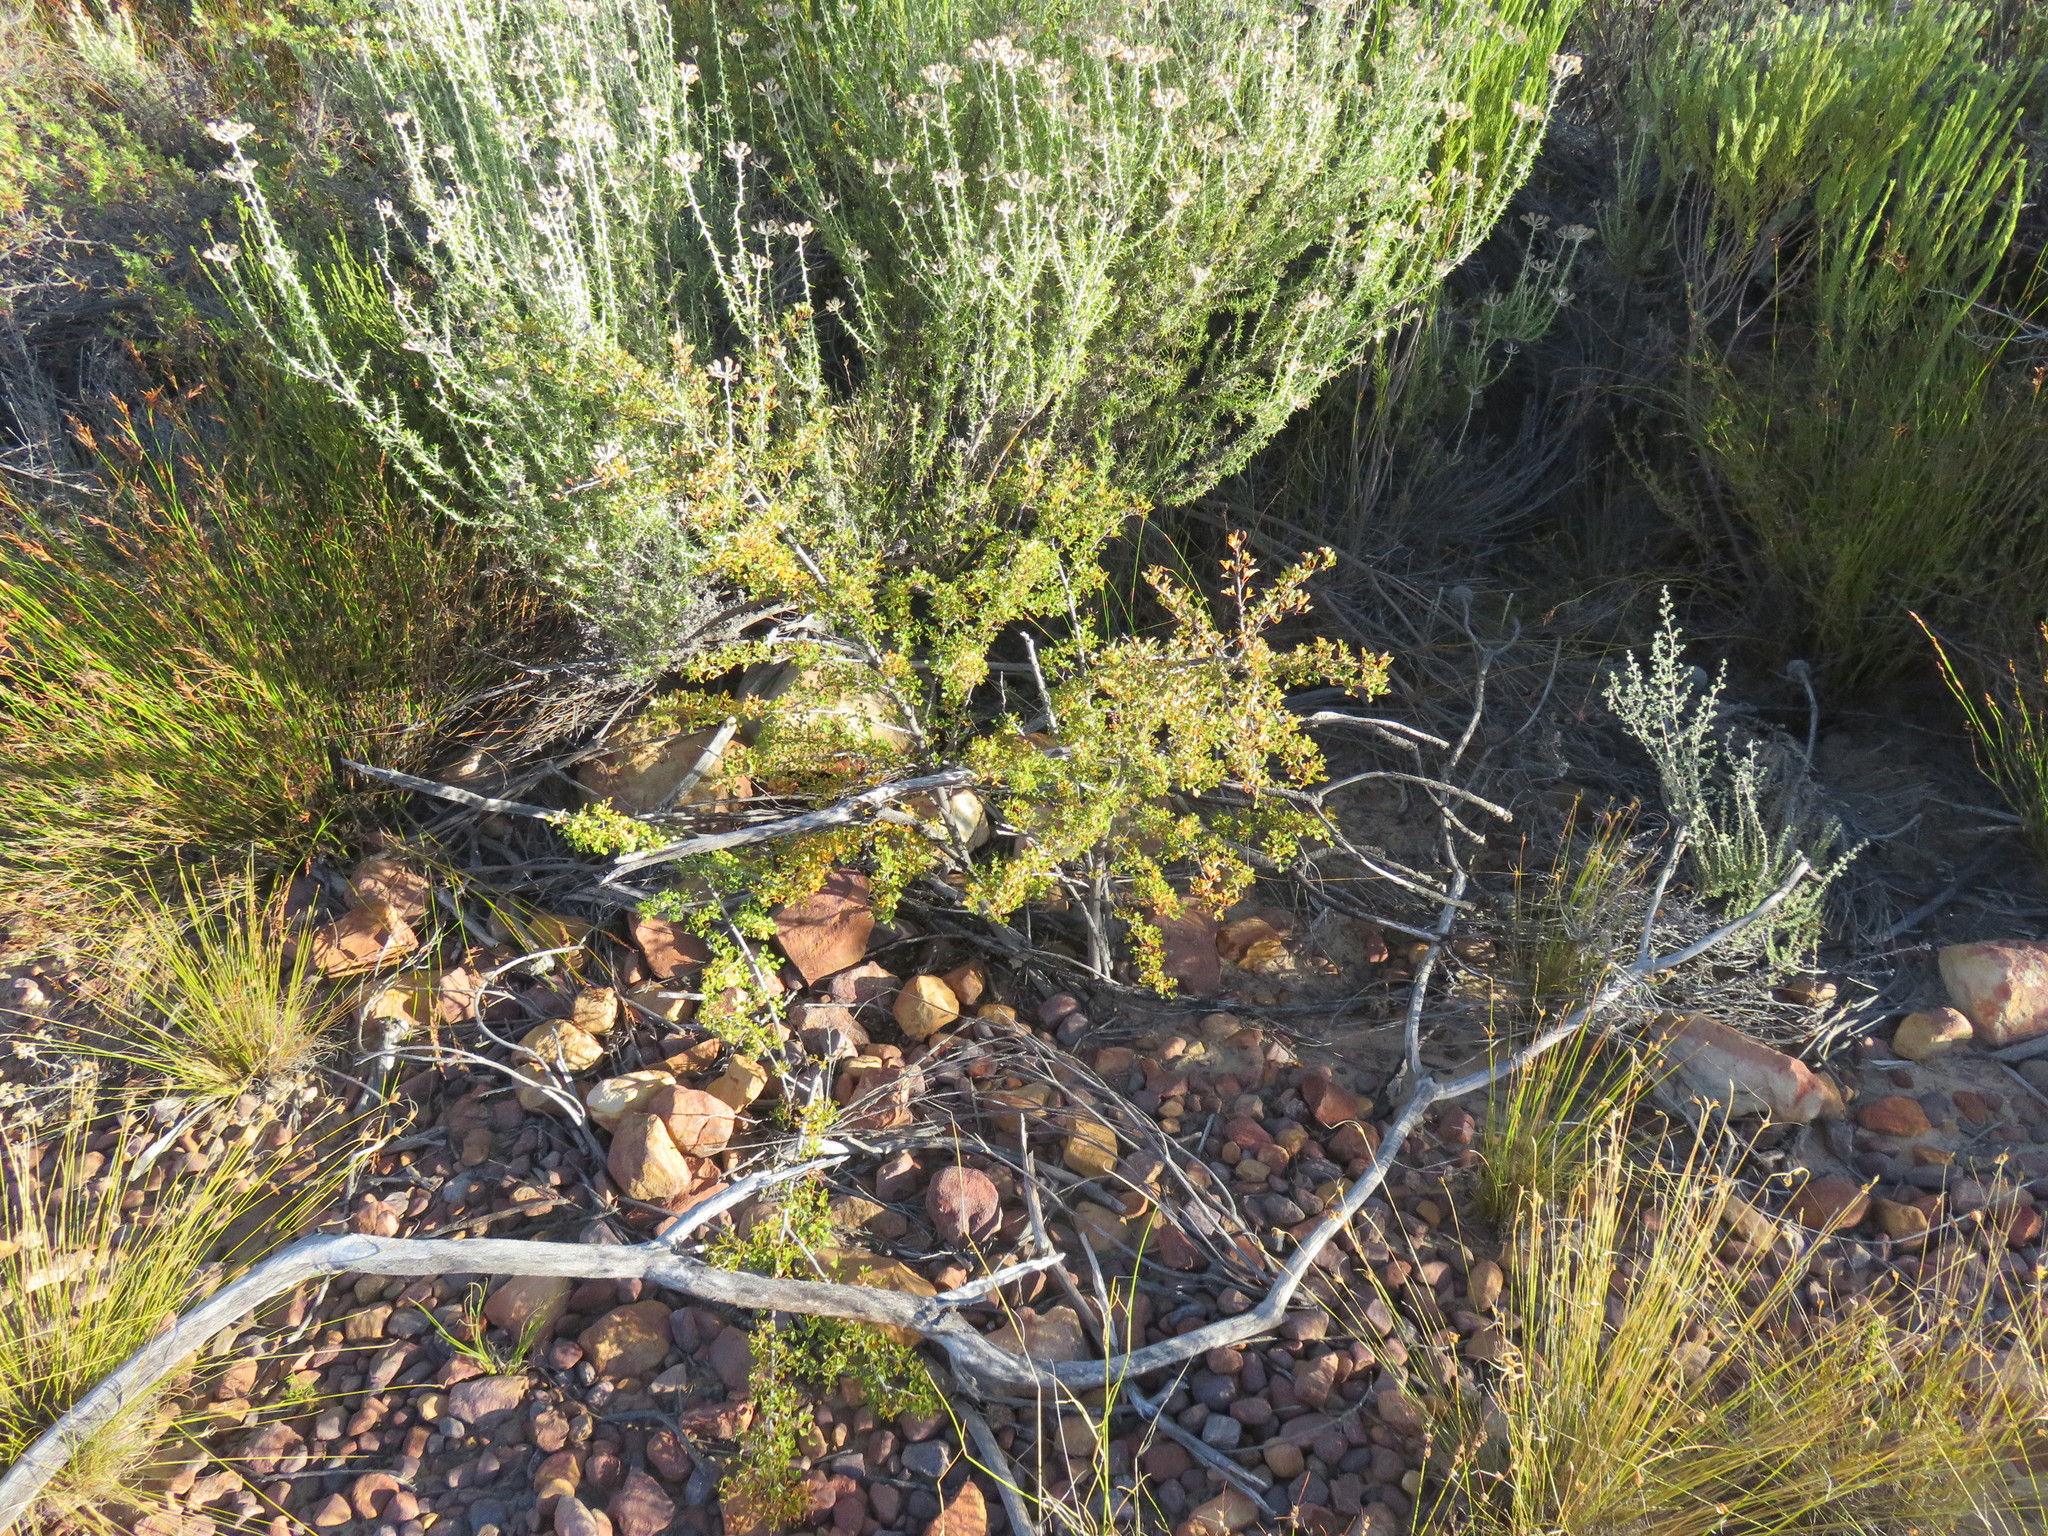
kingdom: Plantae
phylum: Tracheophyta
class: Magnoliopsida
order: Sapindales
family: Anacardiaceae
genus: Searsia
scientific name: Searsia dissecta
